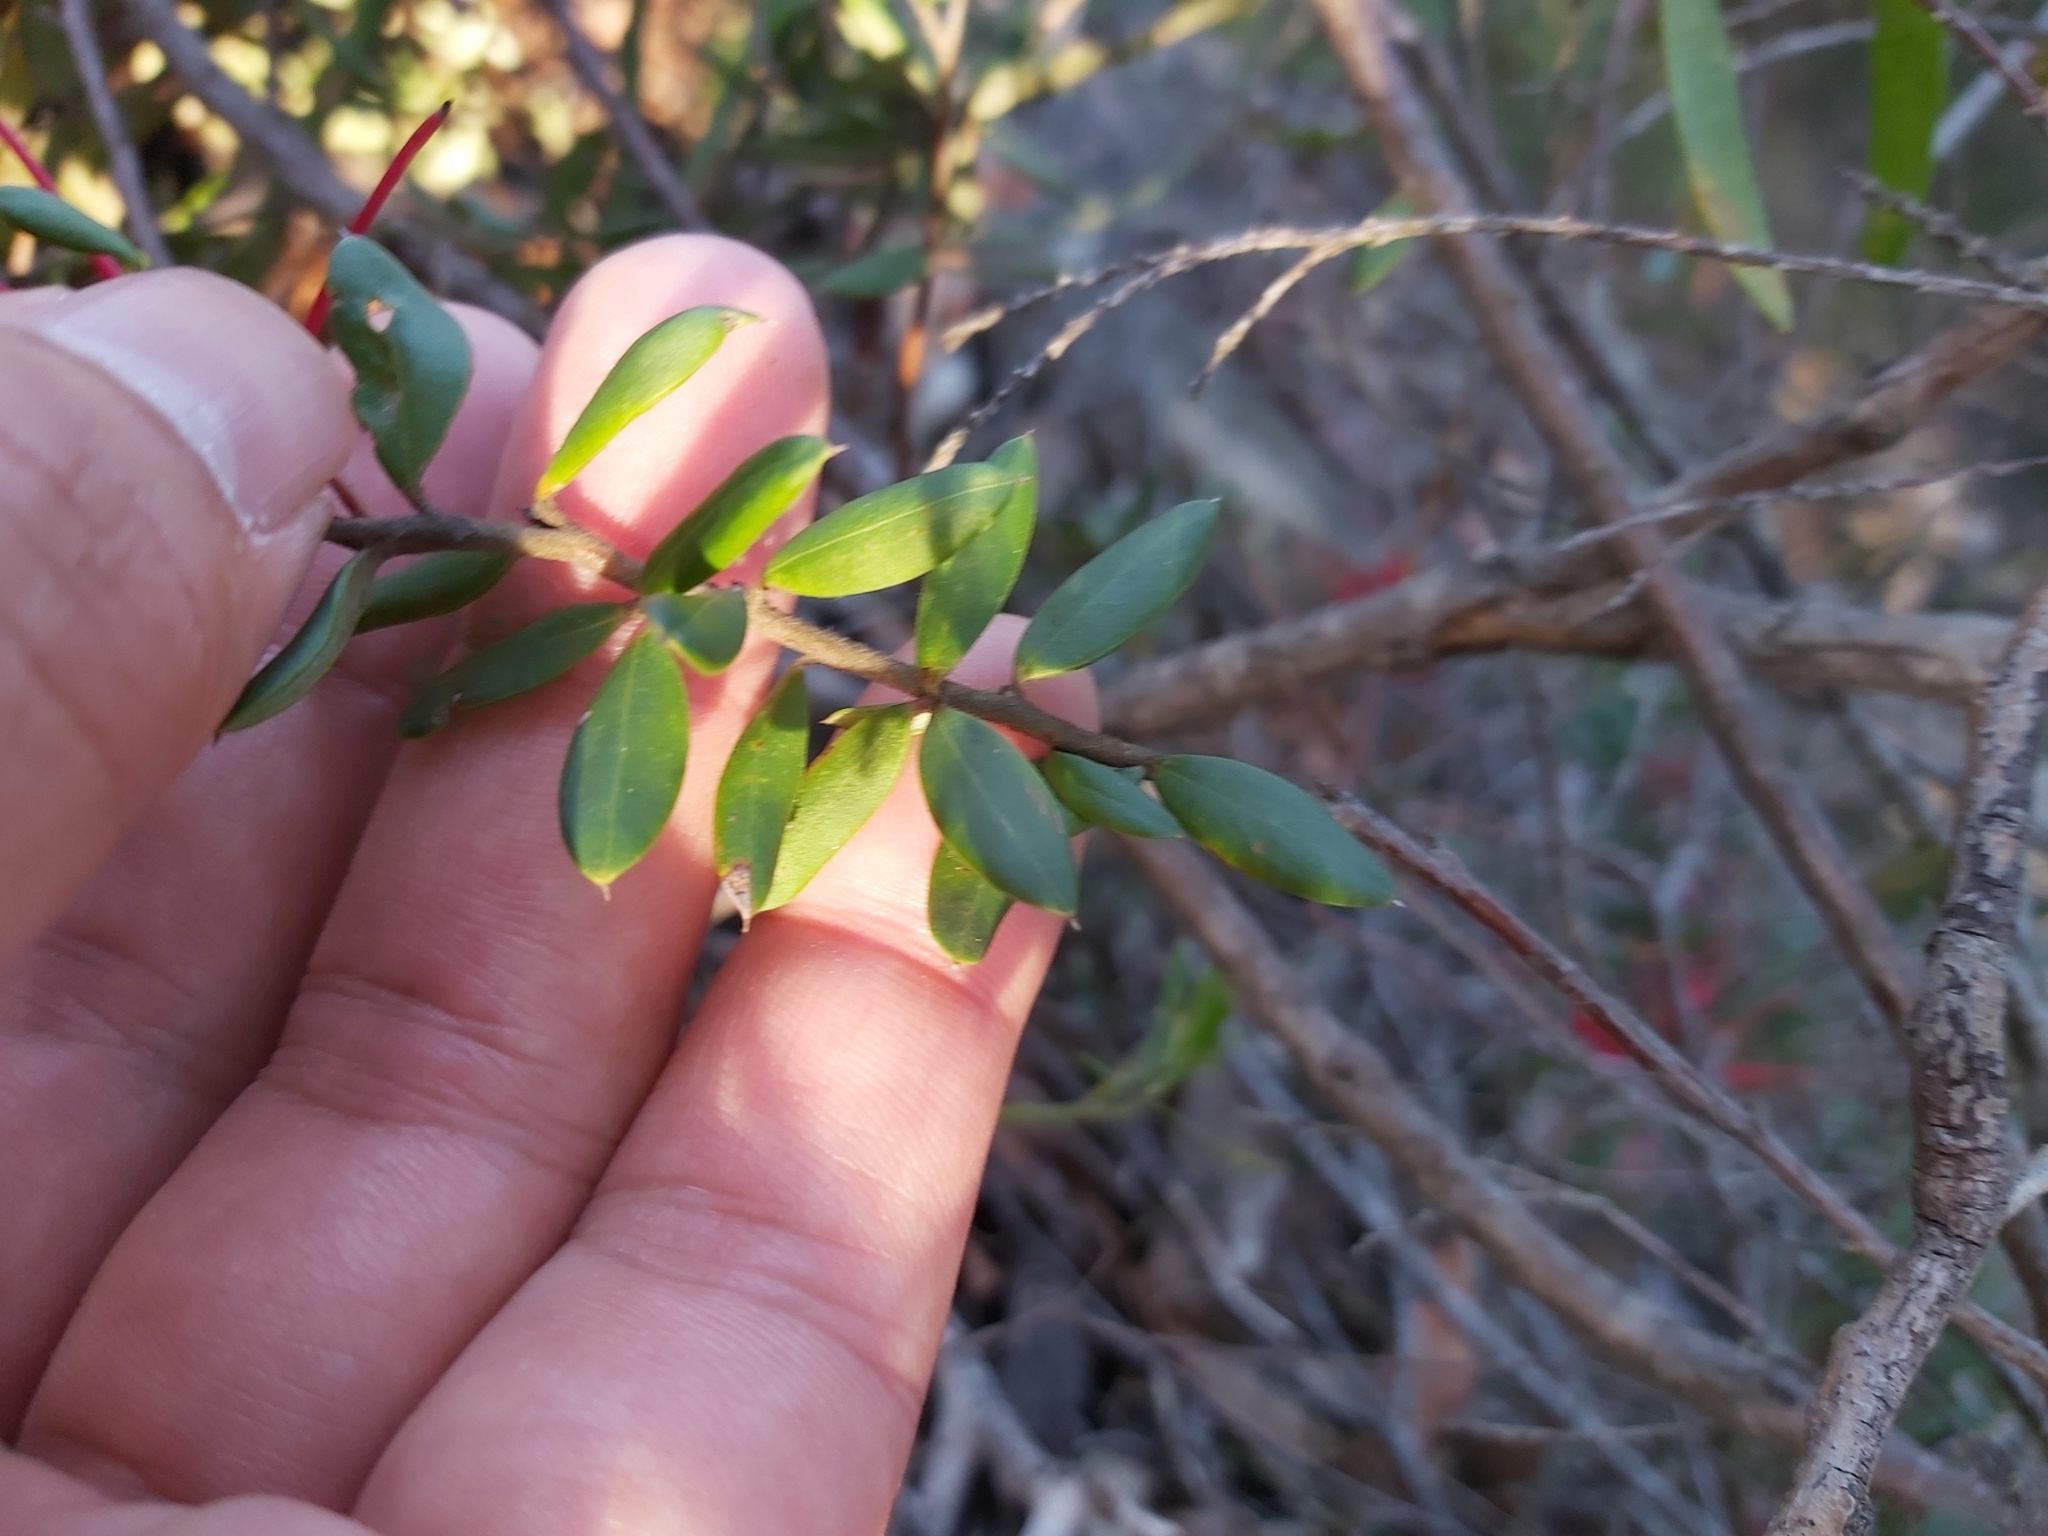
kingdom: Plantae
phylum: Tracheophyta
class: Magnoliopsida
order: Proteales
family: Proteaceae
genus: Grevillea
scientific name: Grevillea speciosa
